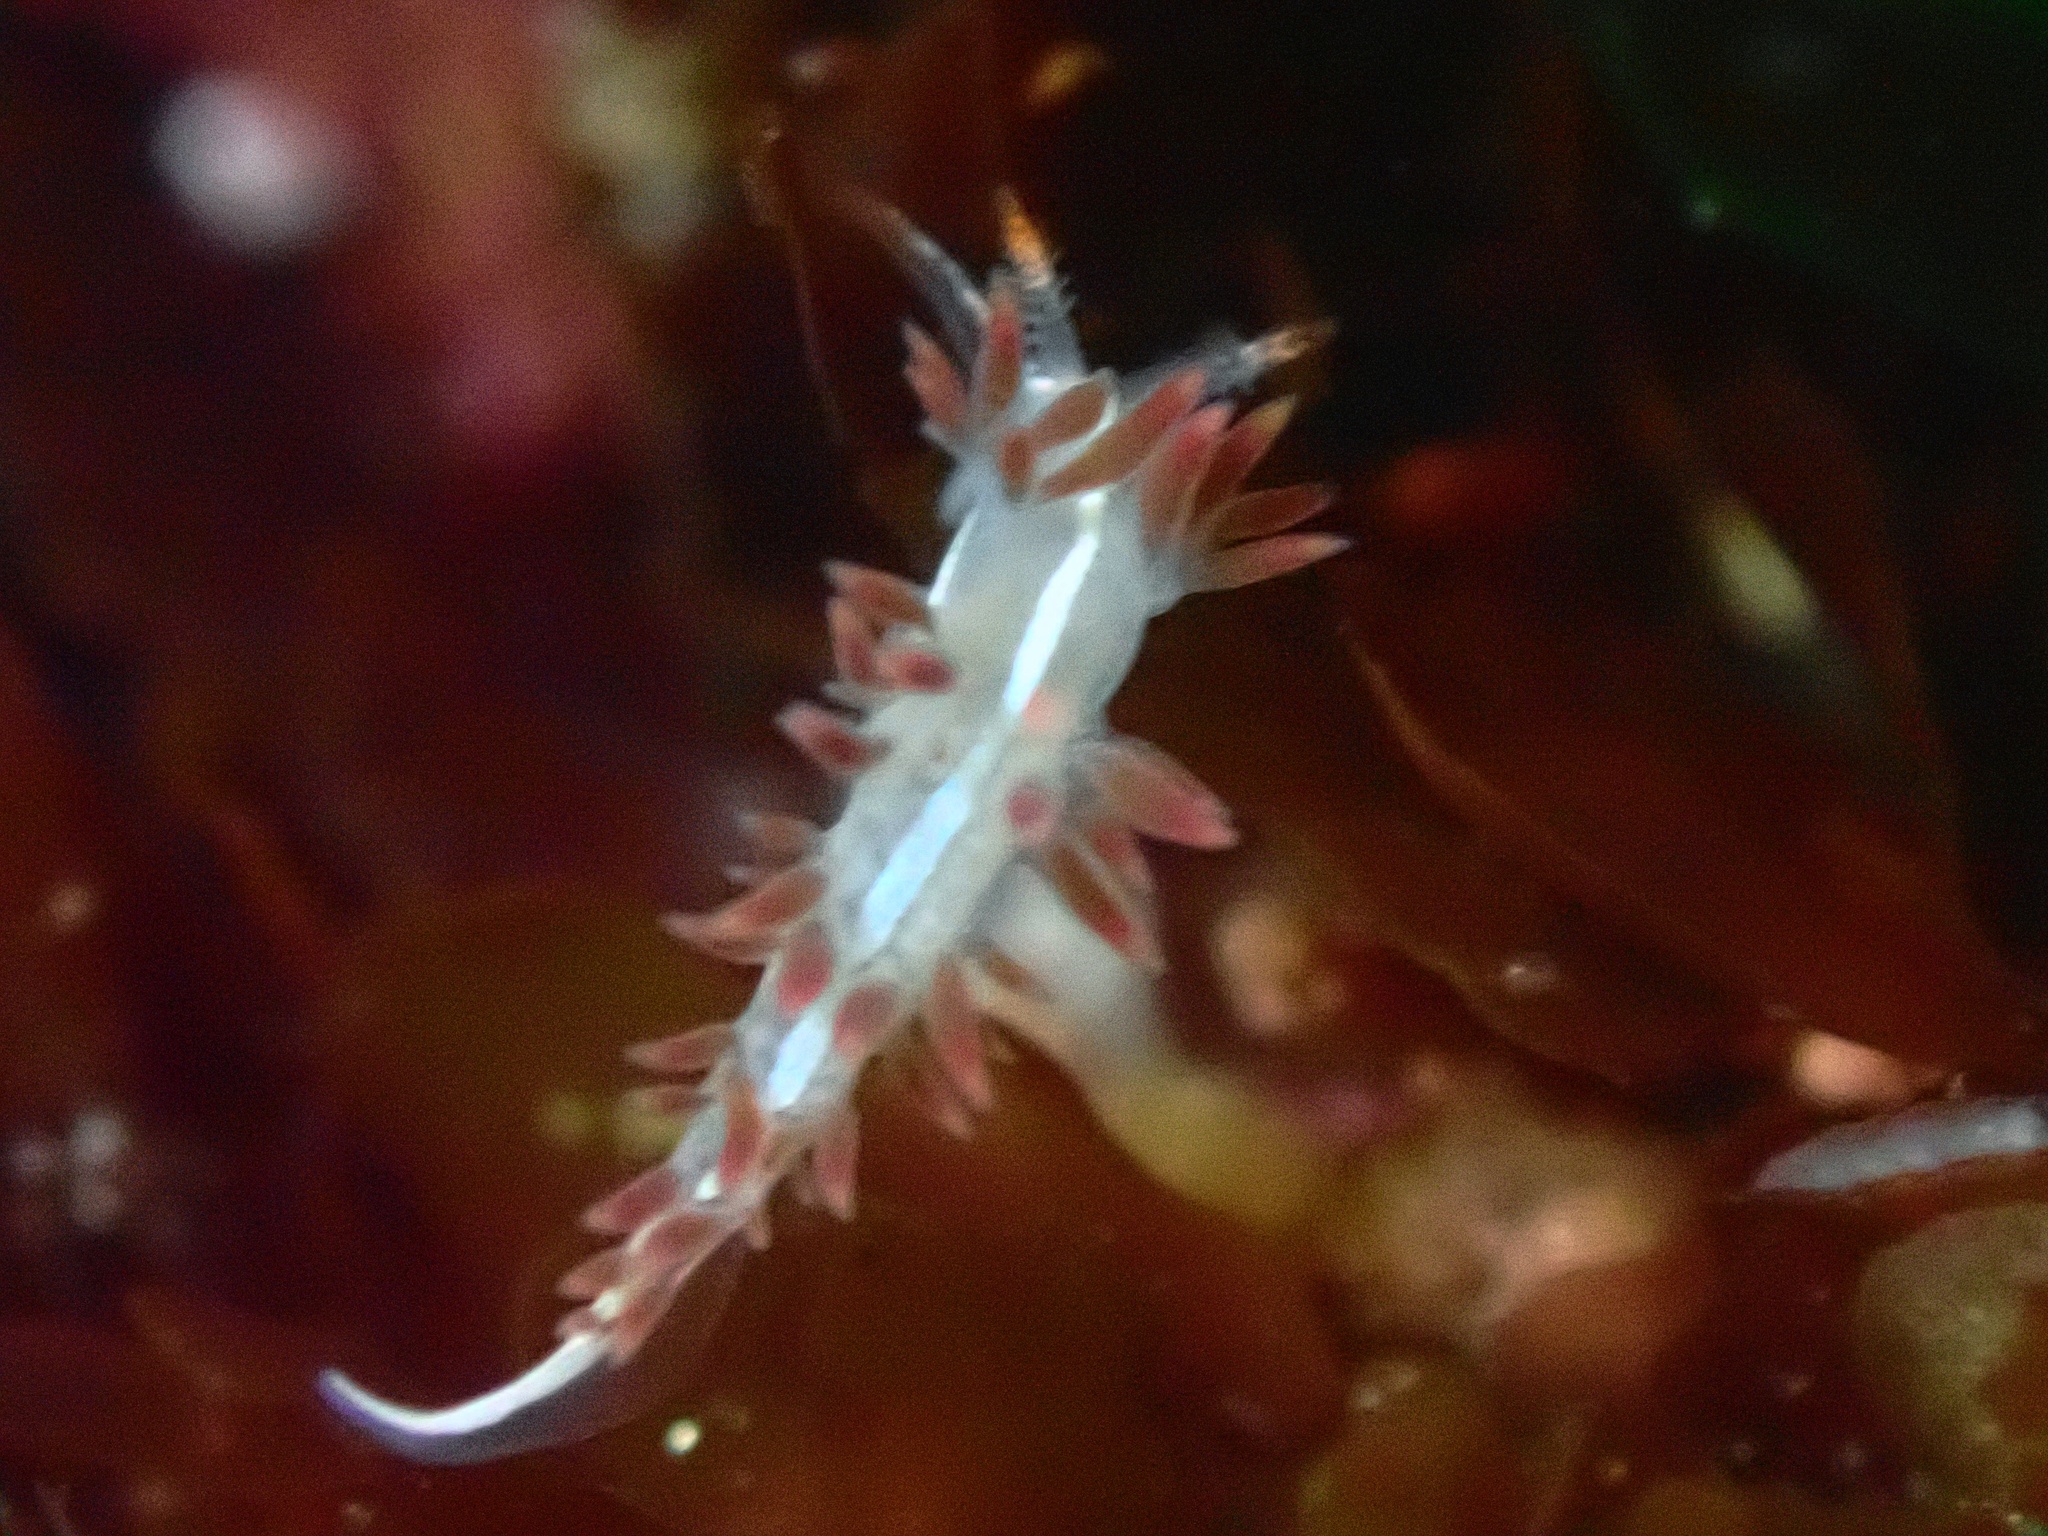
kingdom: Animalia
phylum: Mollusca
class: Gastropoda
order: Nudibranchia
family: Coryphellidae
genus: Coryphella
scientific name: Coryphella trilineata
